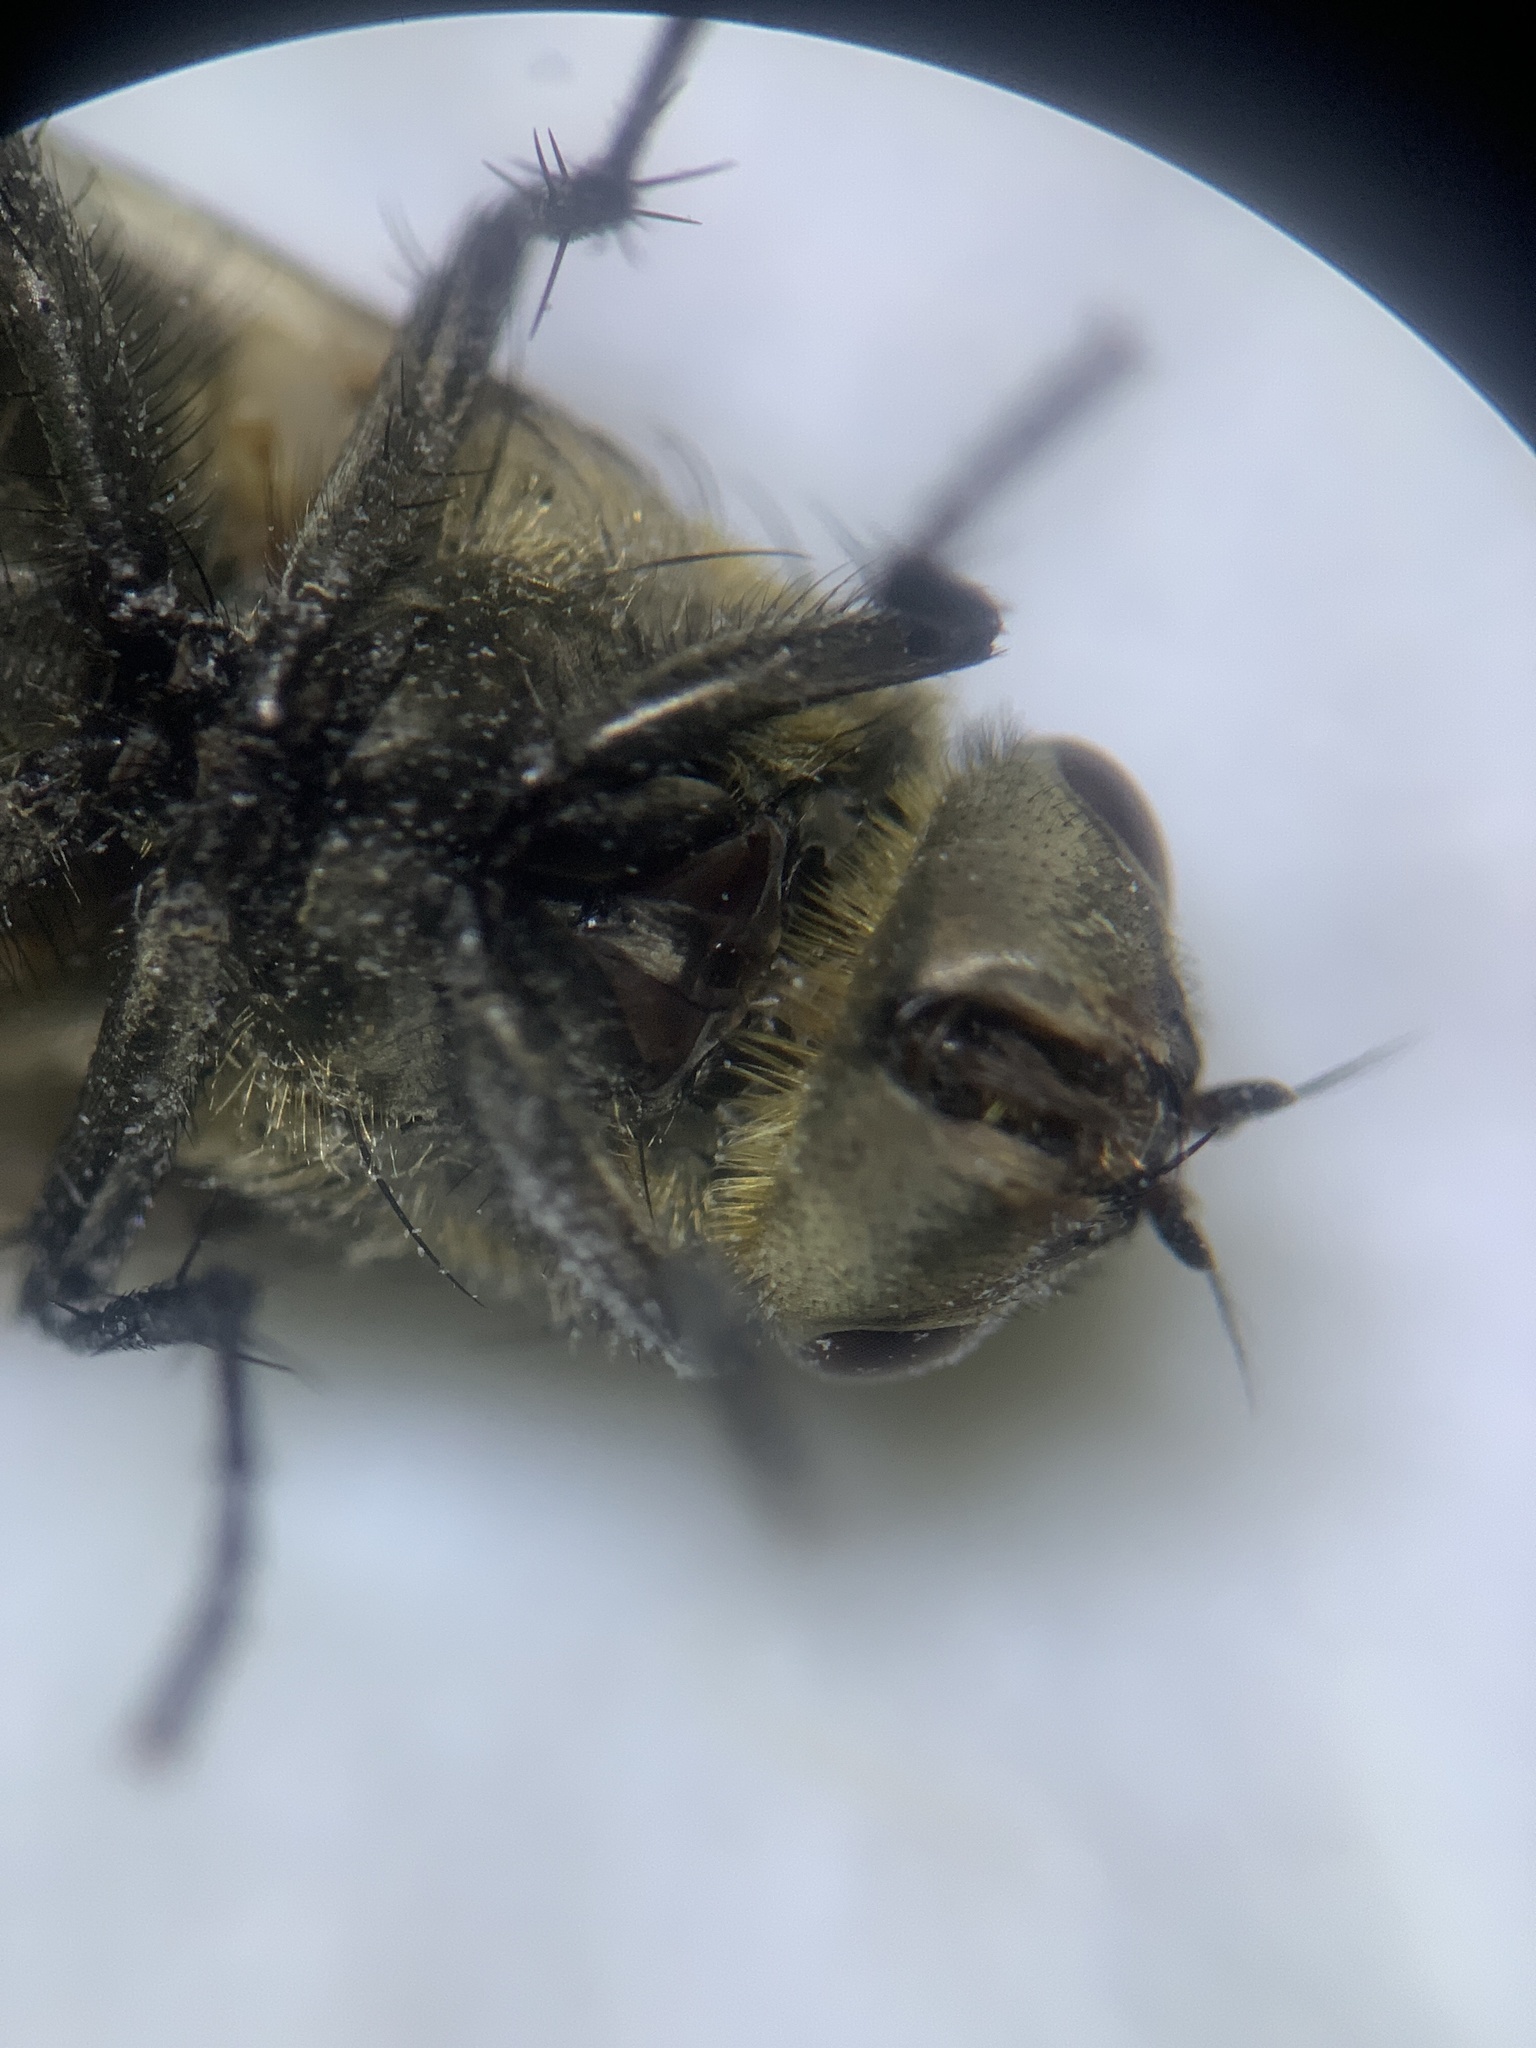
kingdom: Animalia
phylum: Arthropoda
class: Insecta
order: Diptera
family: Polleniidae
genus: Pollenia
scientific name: Pollenia
